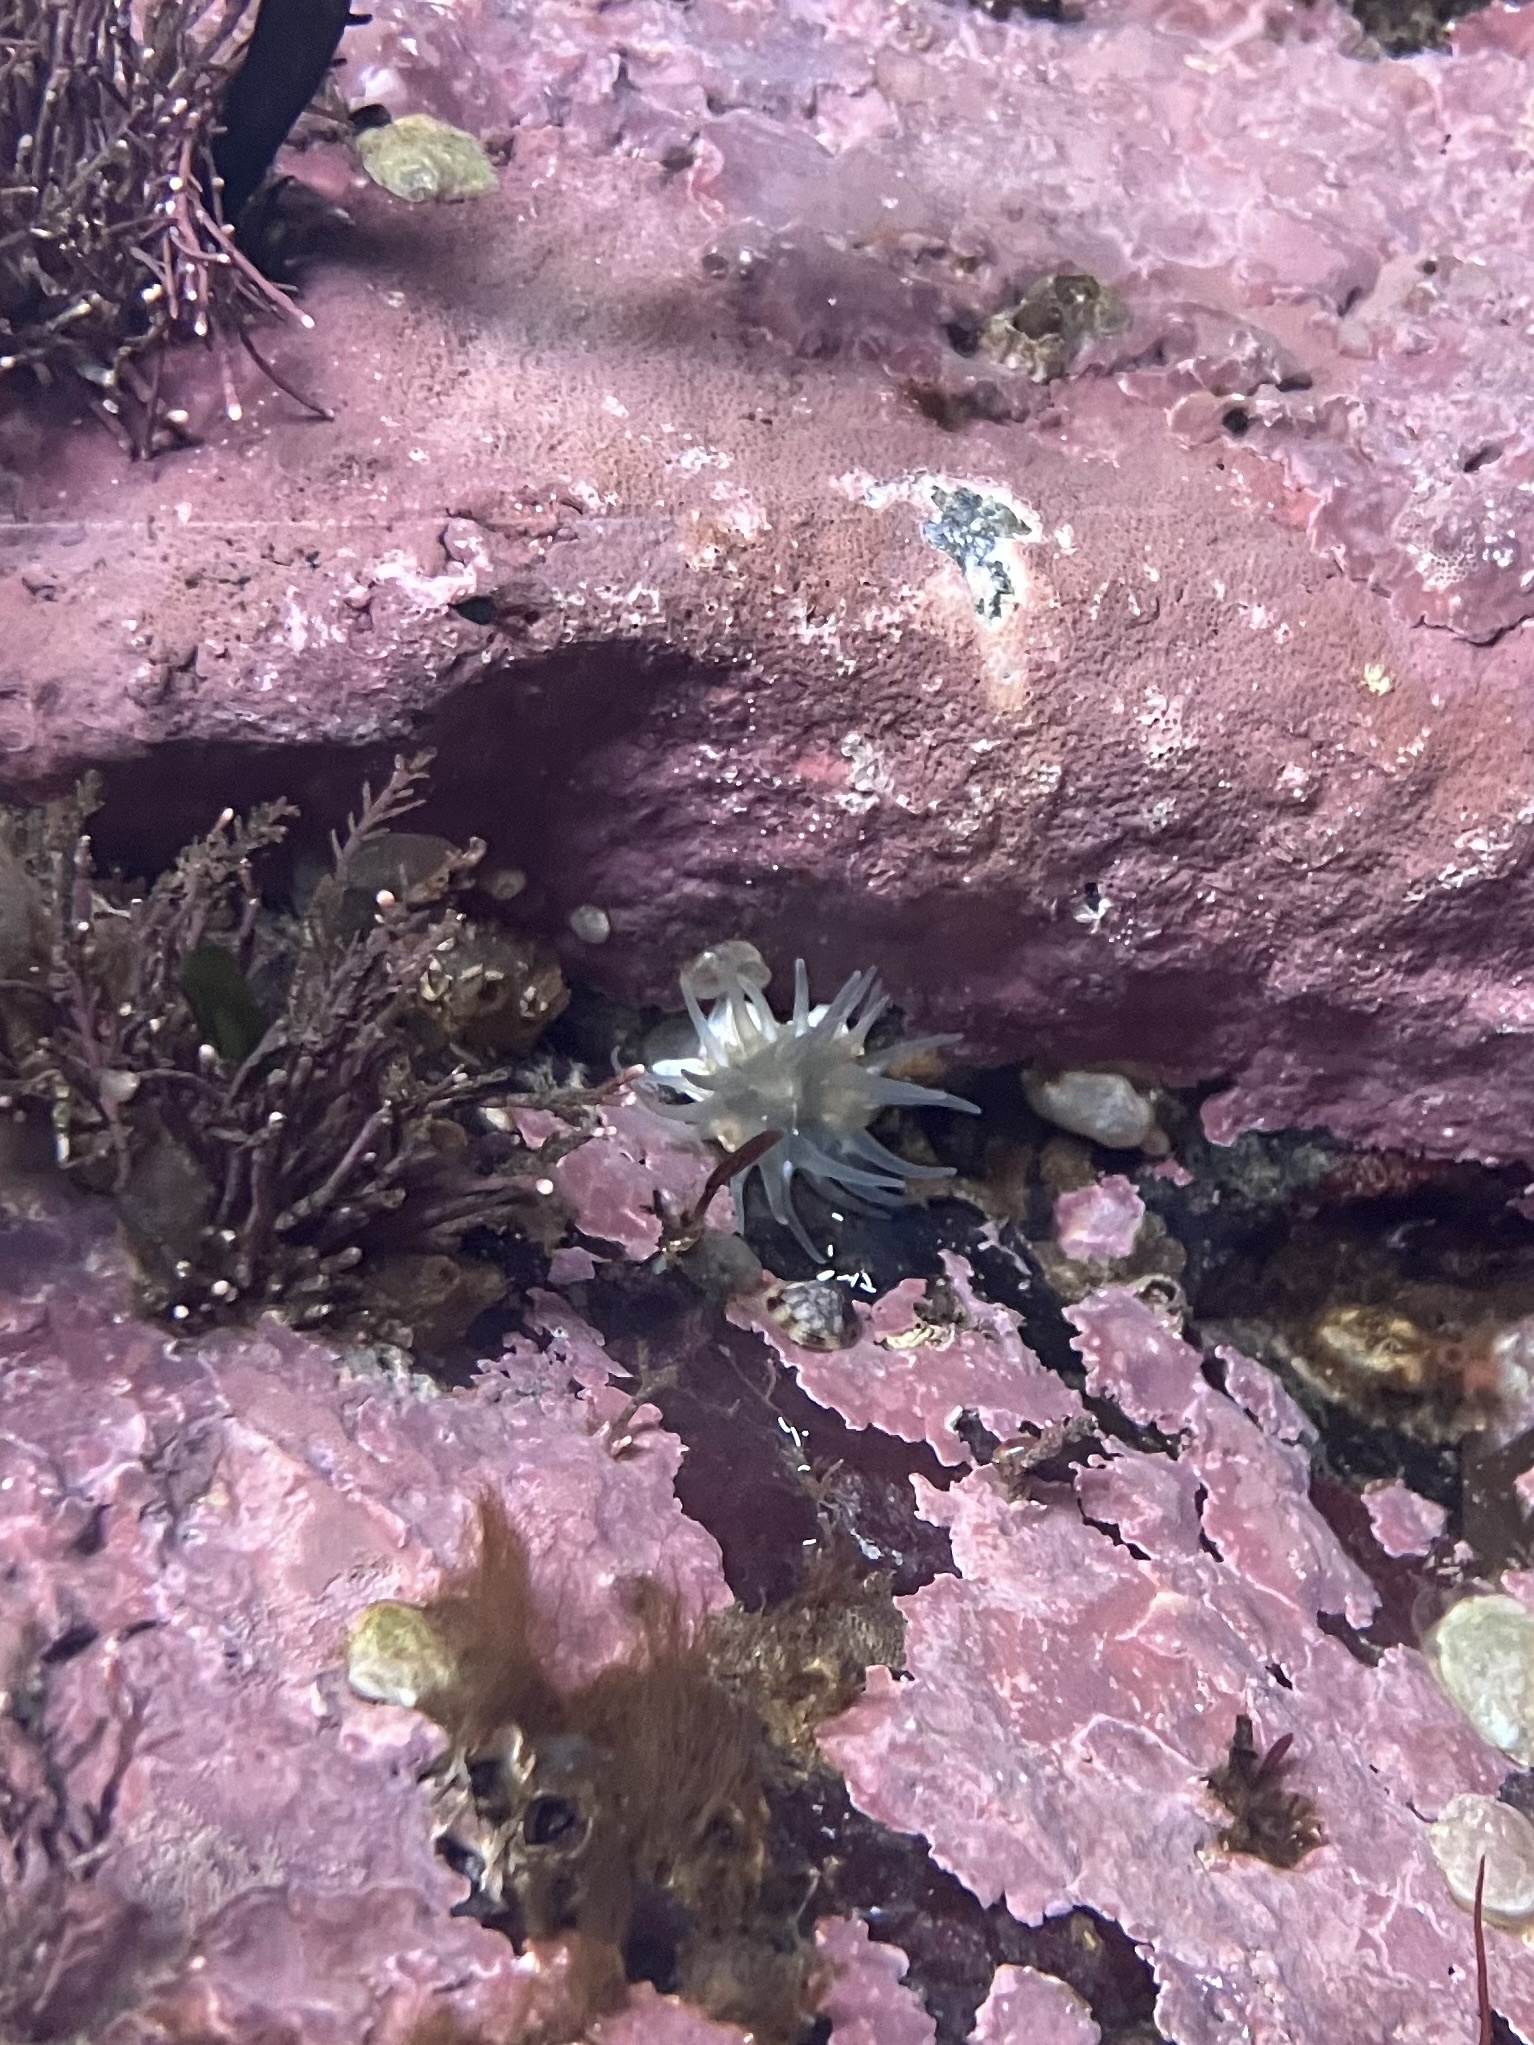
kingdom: Animalia
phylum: Cnidaria
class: Anthozoa
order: Actiniaria
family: Actiniidae
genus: Aulactinia
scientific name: Aulactinia stella
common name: Silver-spotted sea anemone
